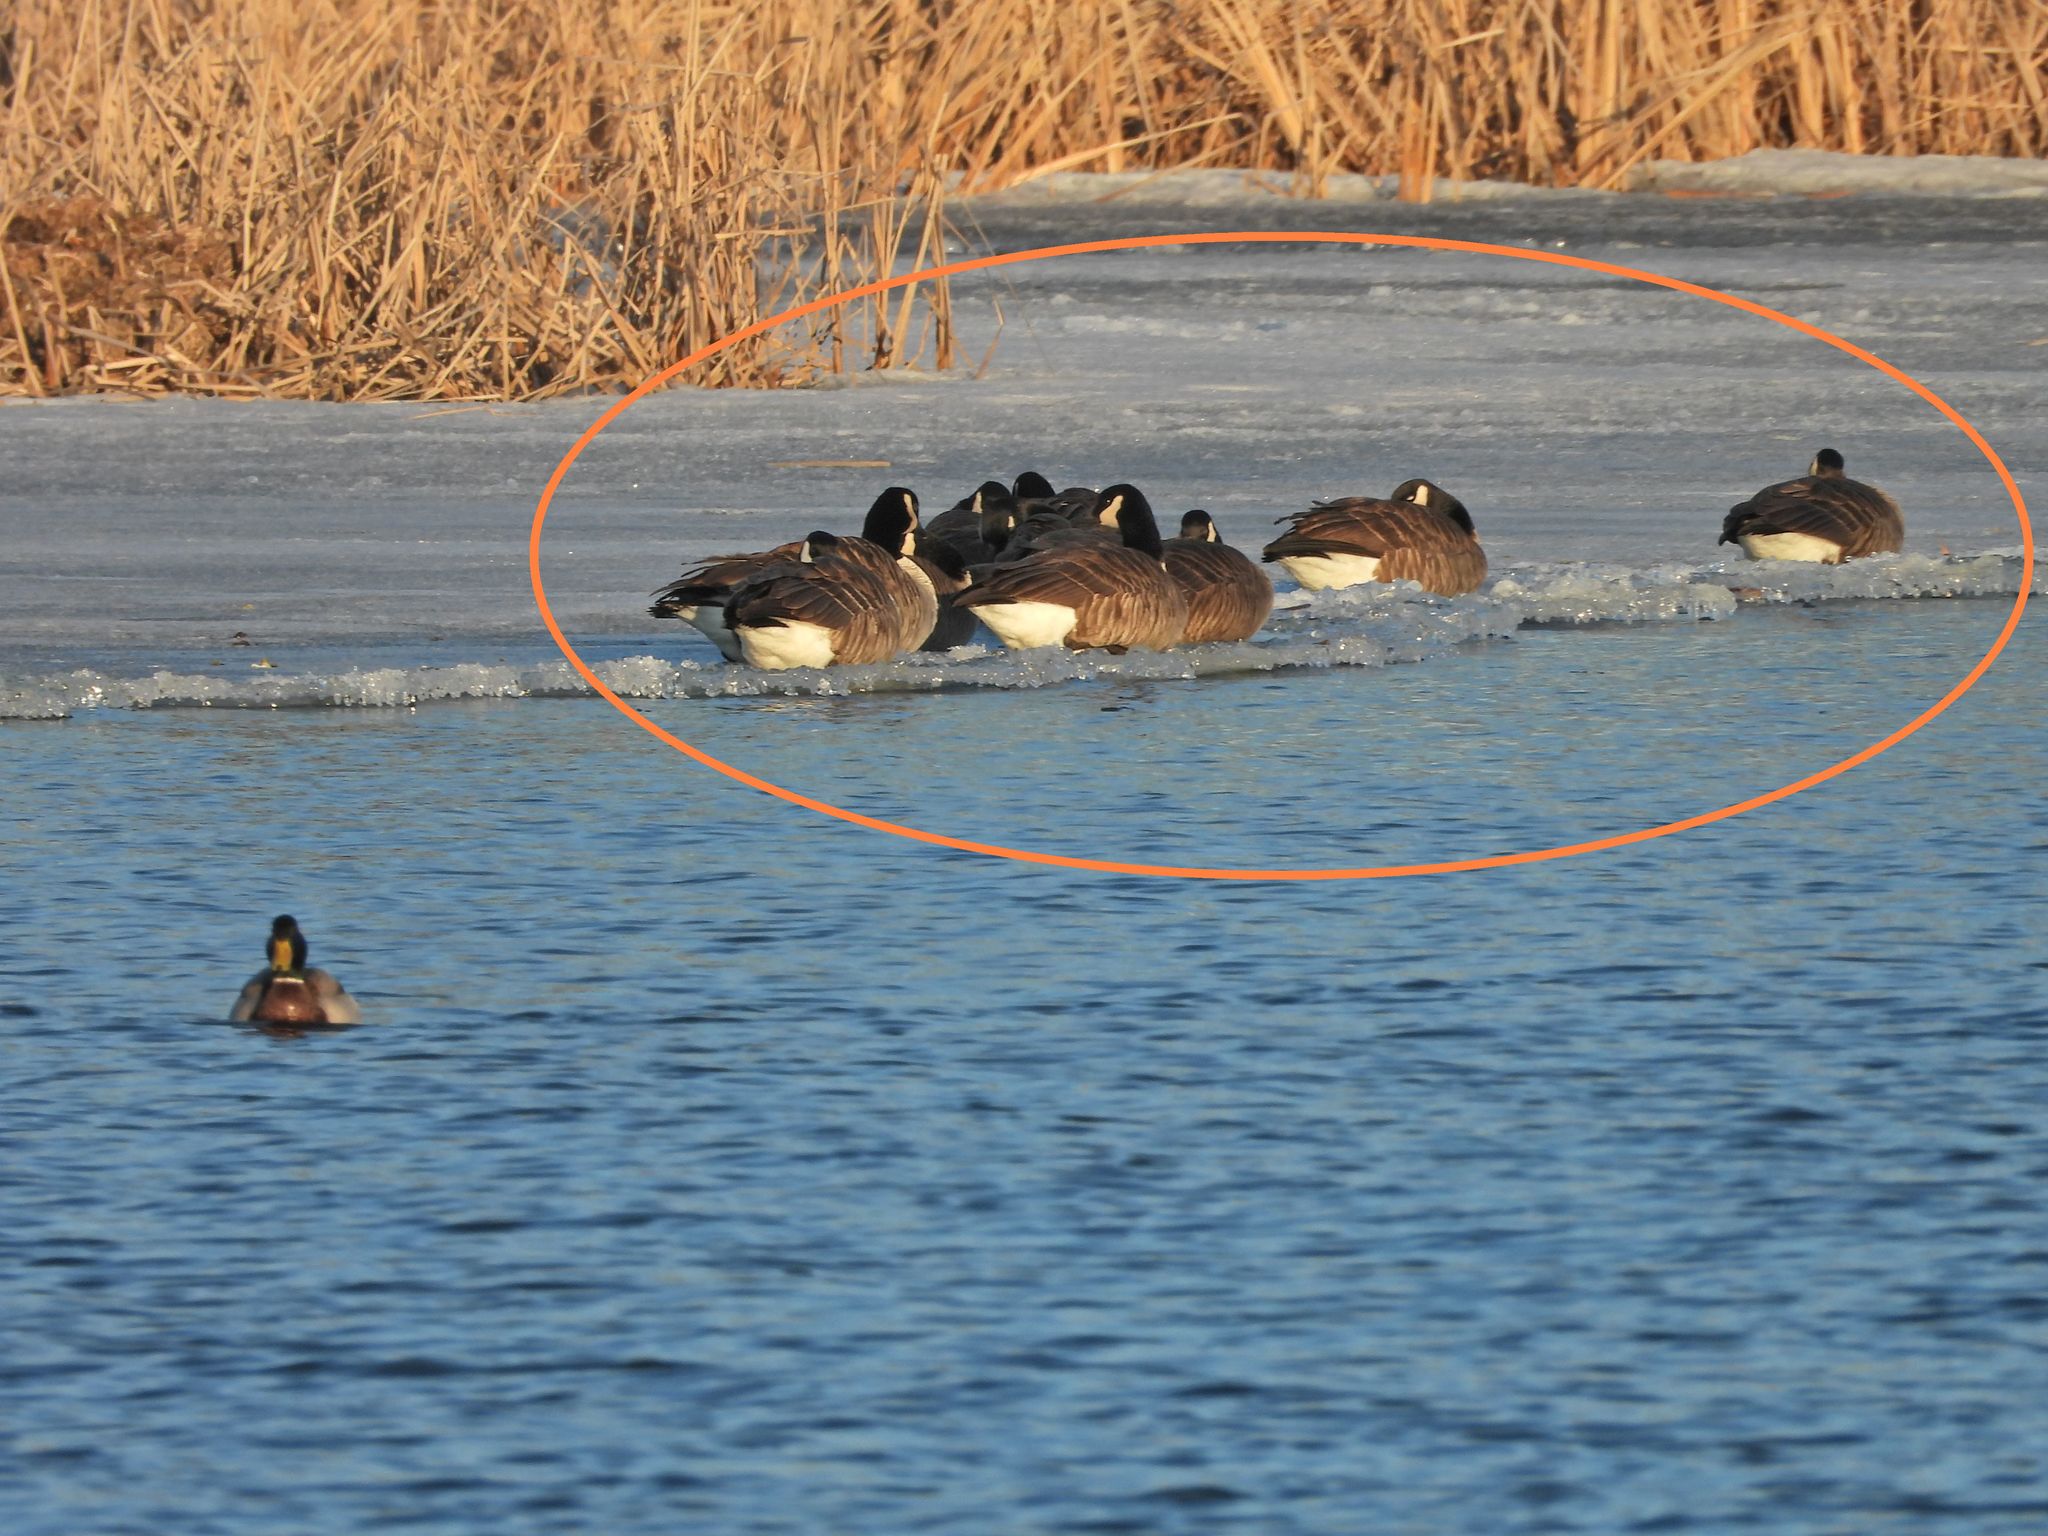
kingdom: Animalia
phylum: Chordata
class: Aves
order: Anseriformes
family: Anatidae
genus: Branta
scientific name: Branta canadensis
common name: Canada goose
